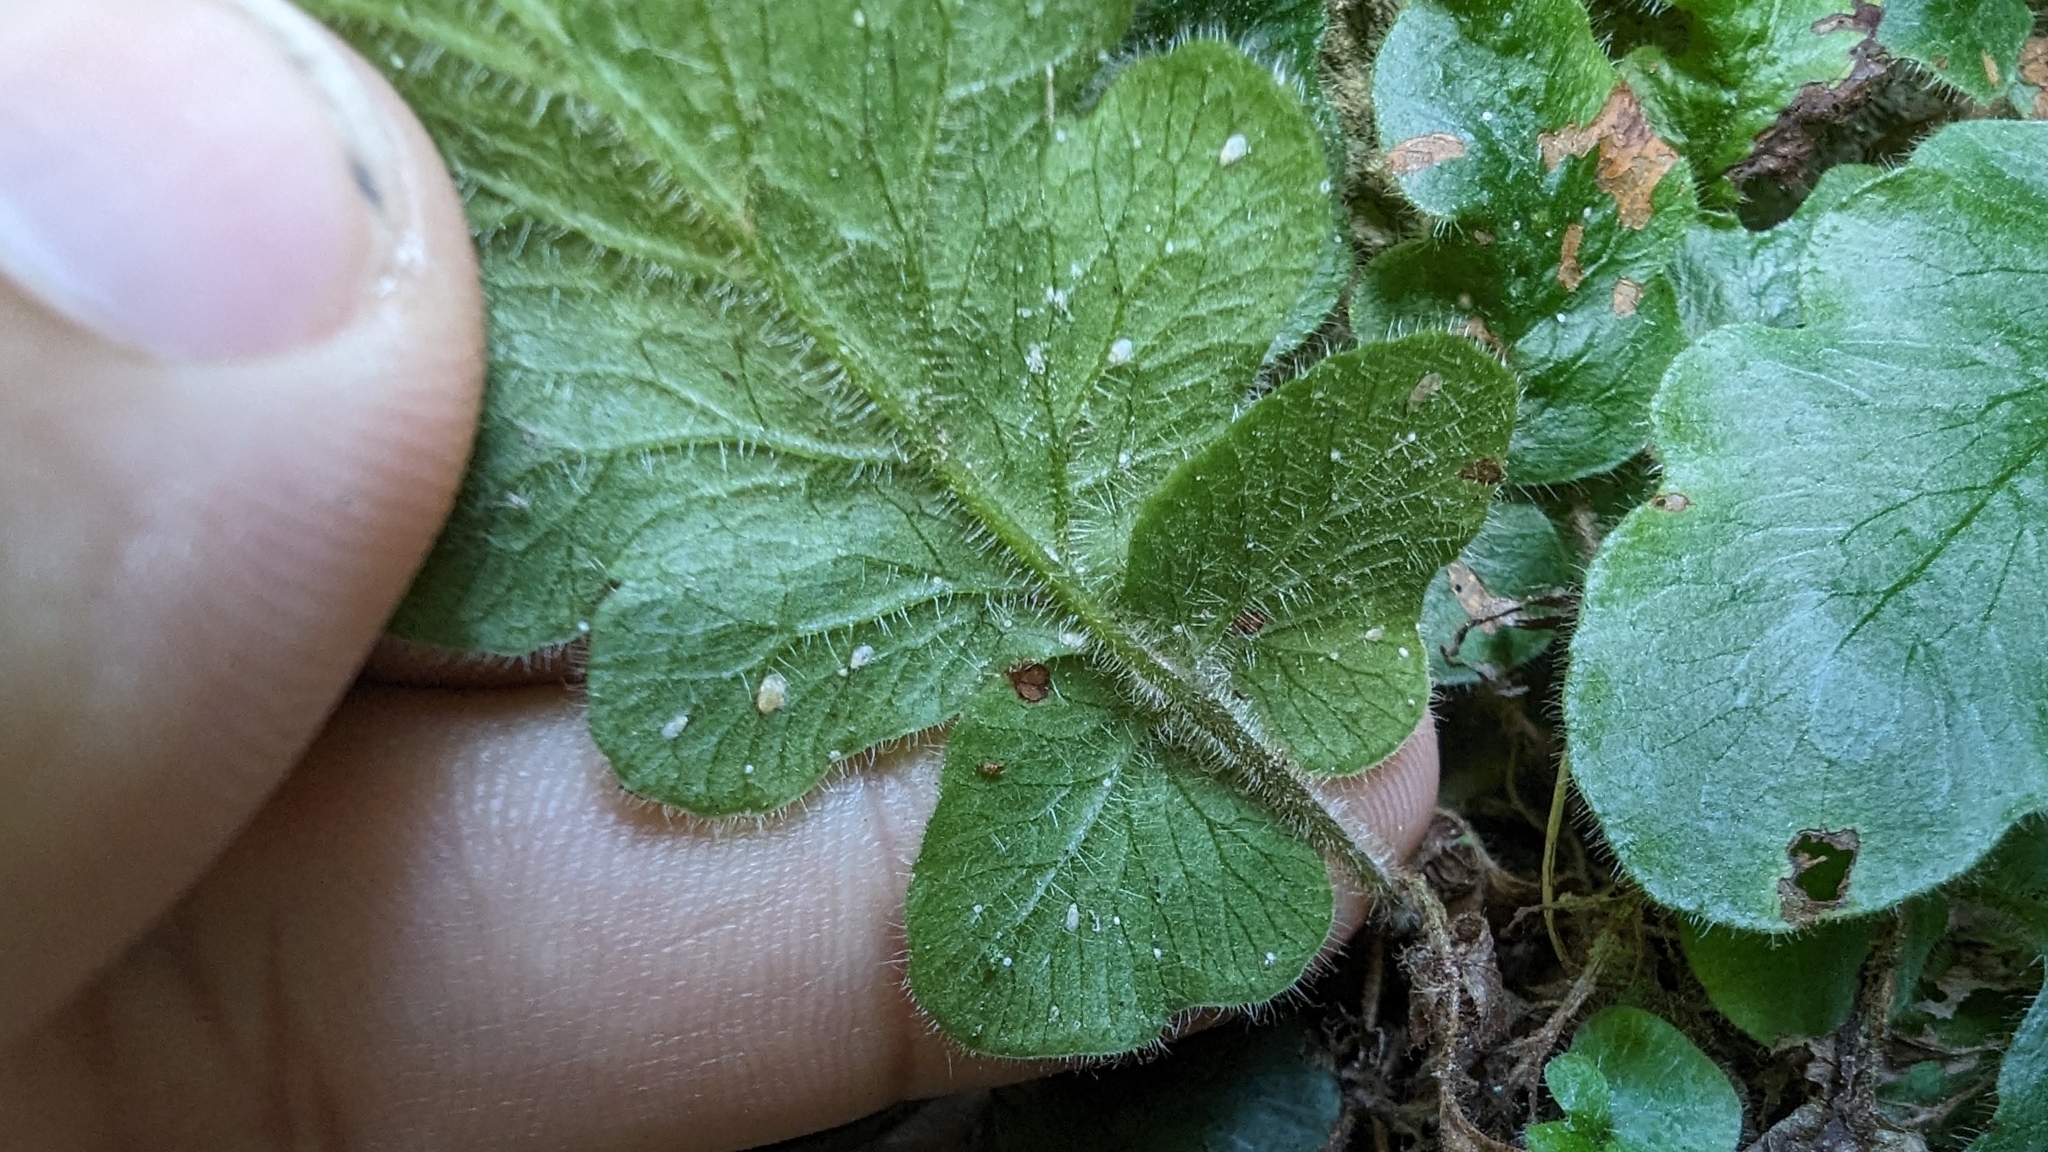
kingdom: Plantae
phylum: Tracheophyta
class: Polypodiopsida
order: Polypodiales
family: Tectariaceae
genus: Tectaria
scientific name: Tectaria zeilanica
